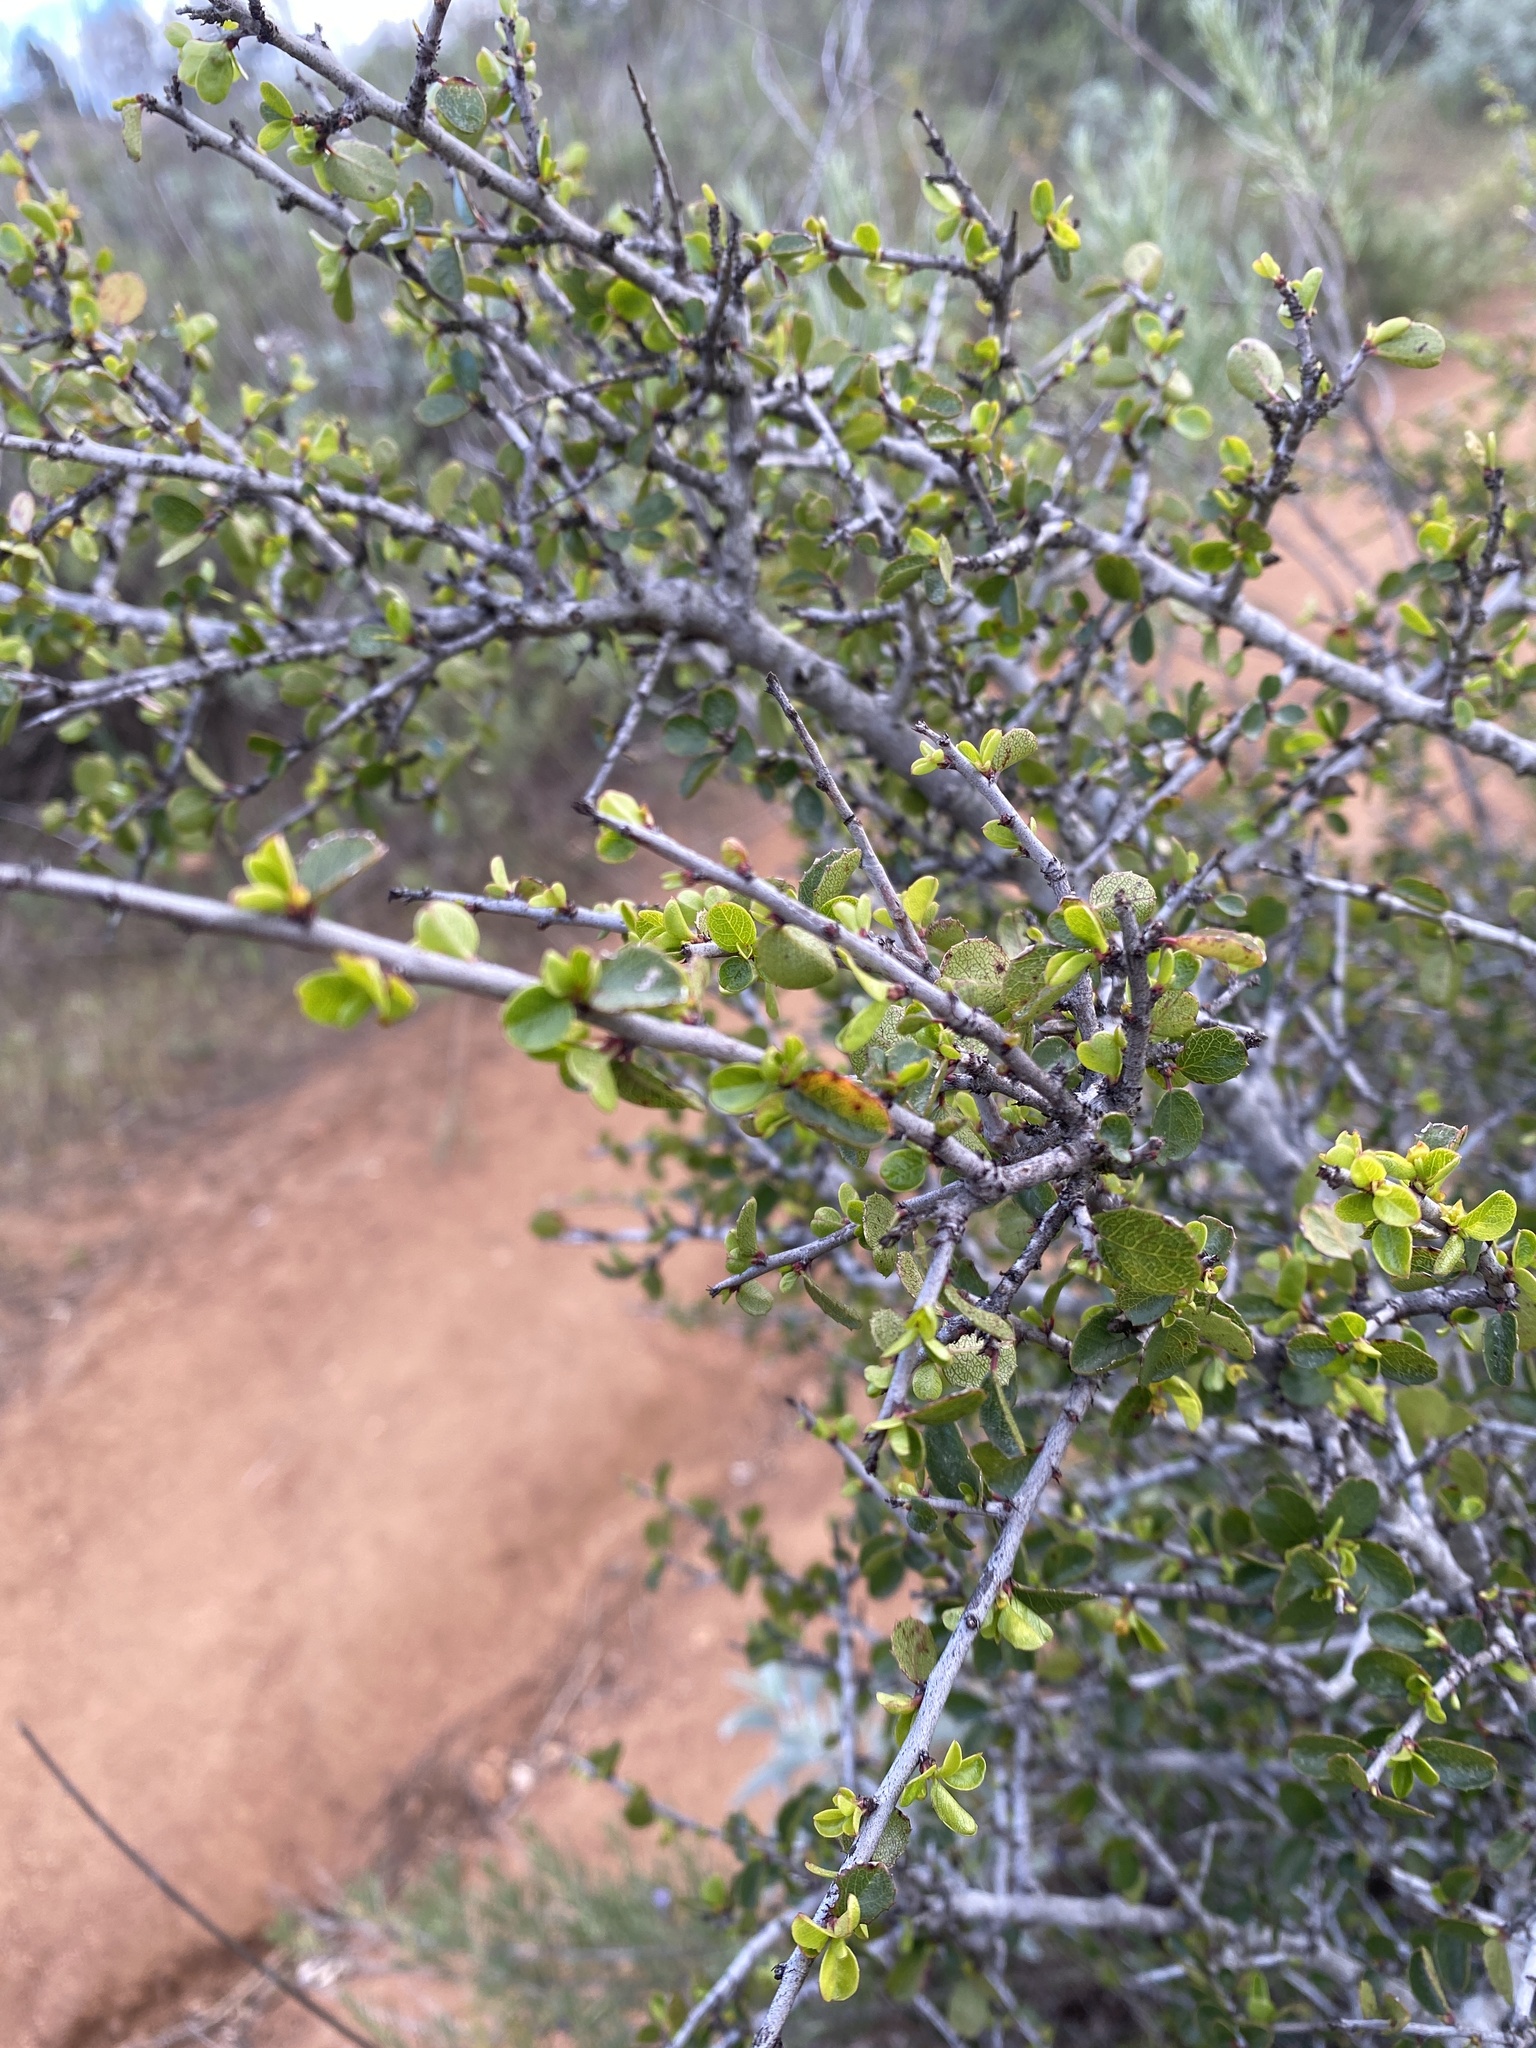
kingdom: Plantae
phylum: Tracheophyta
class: Magnoliopsida
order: Rosales
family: Rhamnaceae
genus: Endotropis
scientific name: Endotropis crocea
